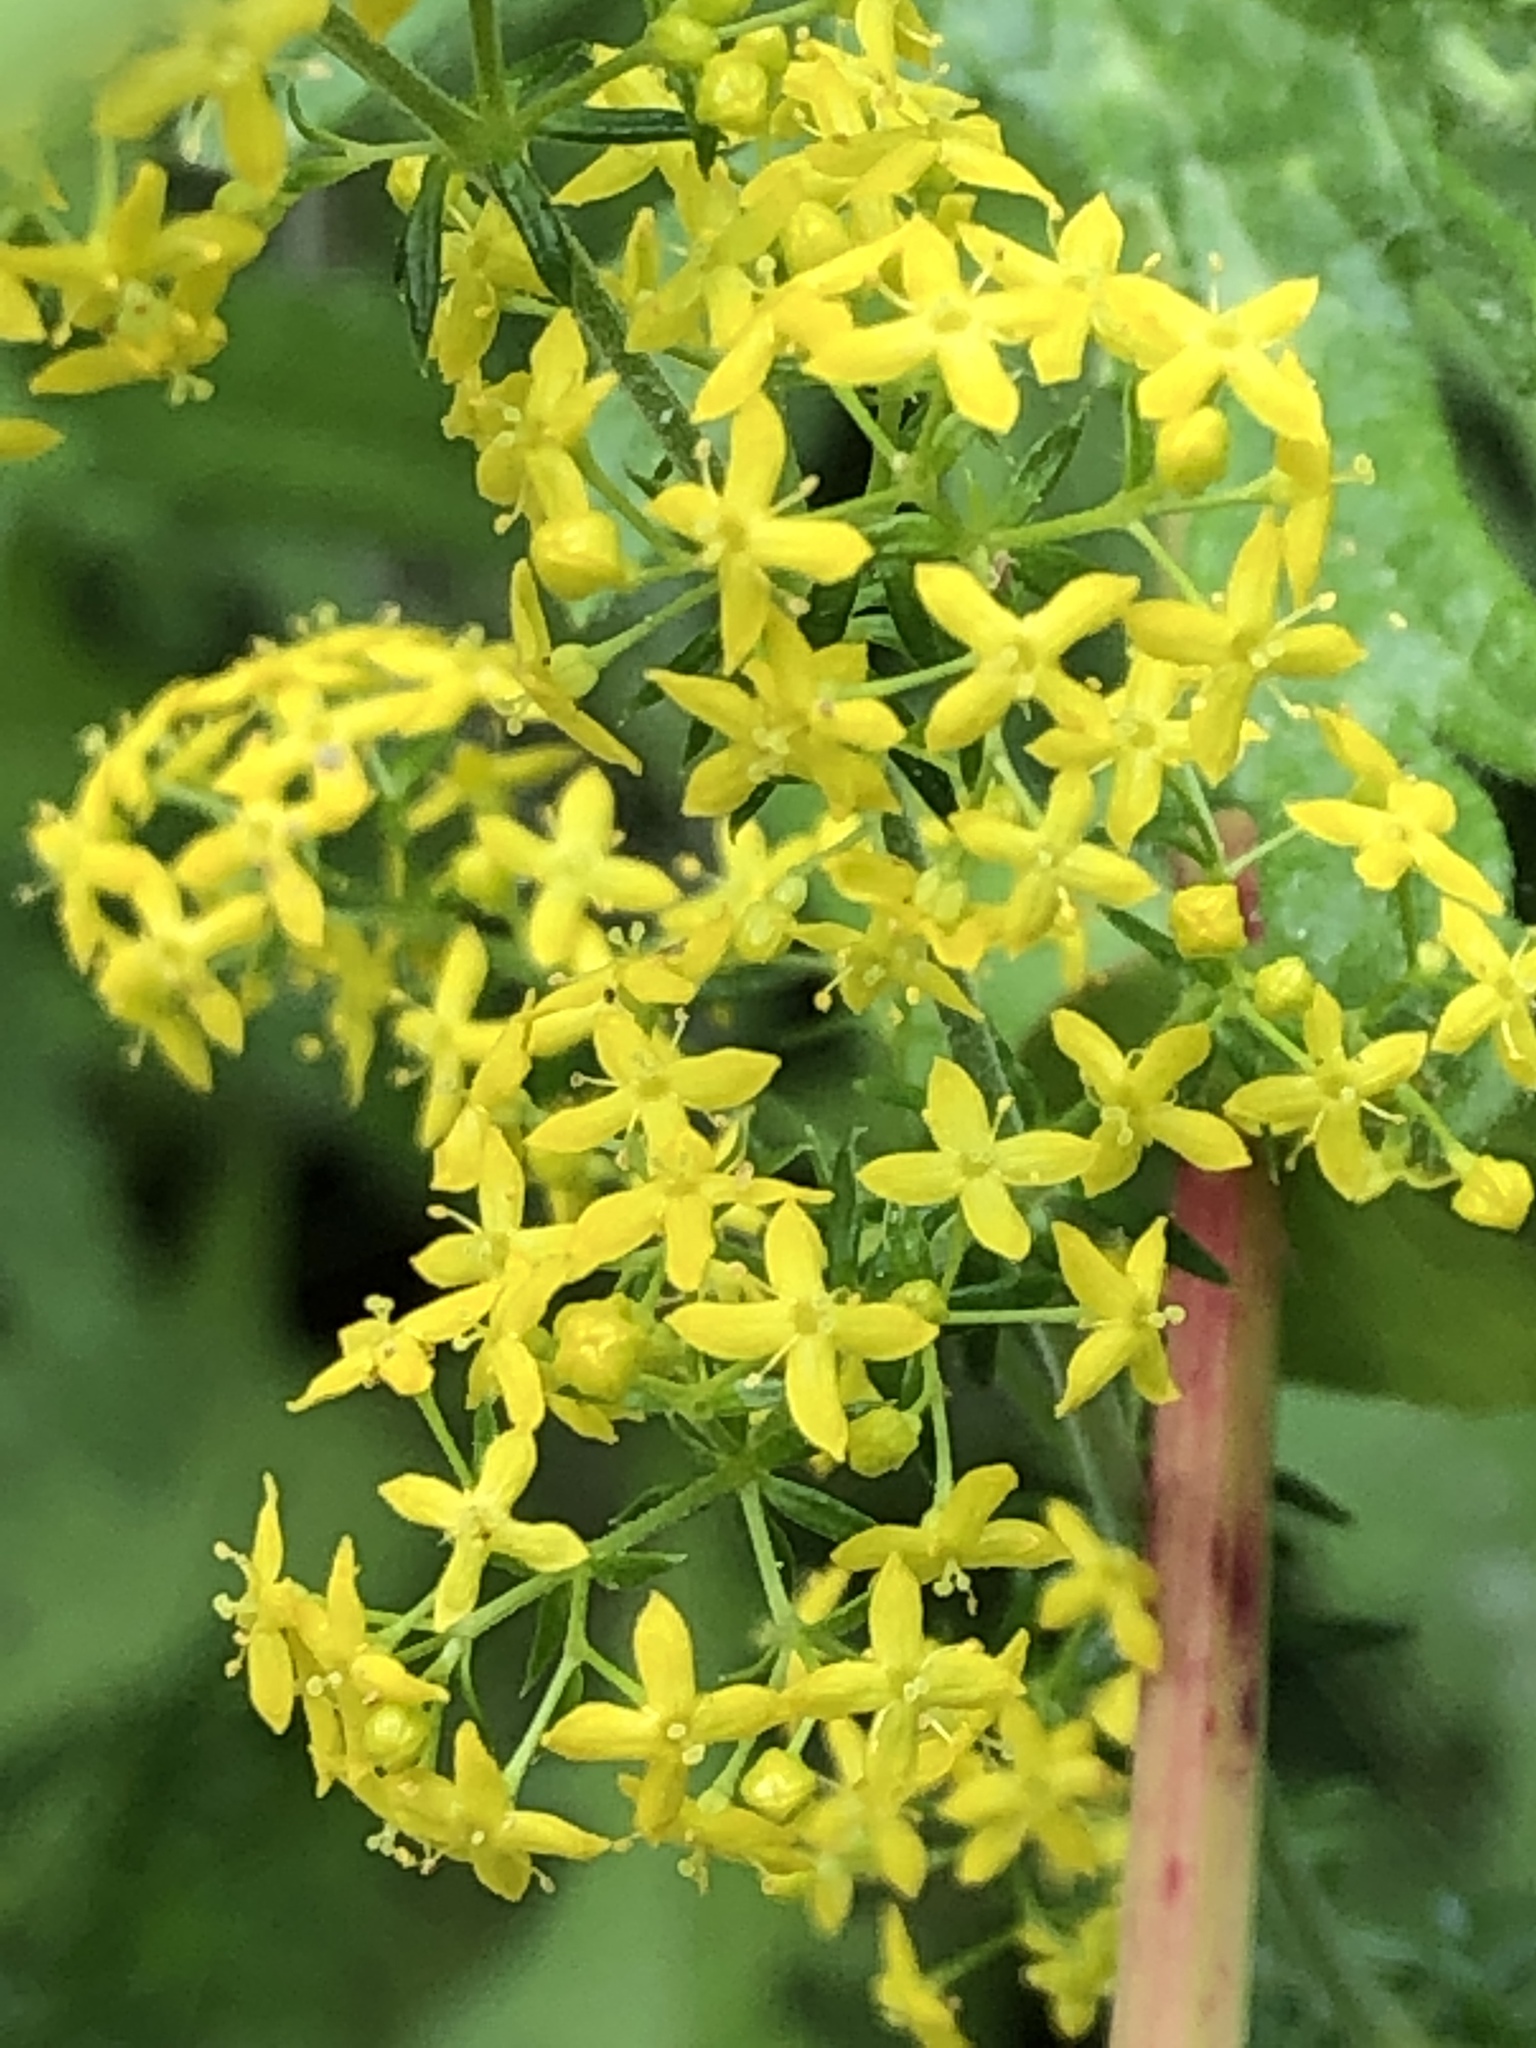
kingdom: Plantae
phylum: Tracheophyta
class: Magnoliopsida
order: Gentianales
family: Rubiaceae
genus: Galium
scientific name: Galium verum
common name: Lady's bedstraw
